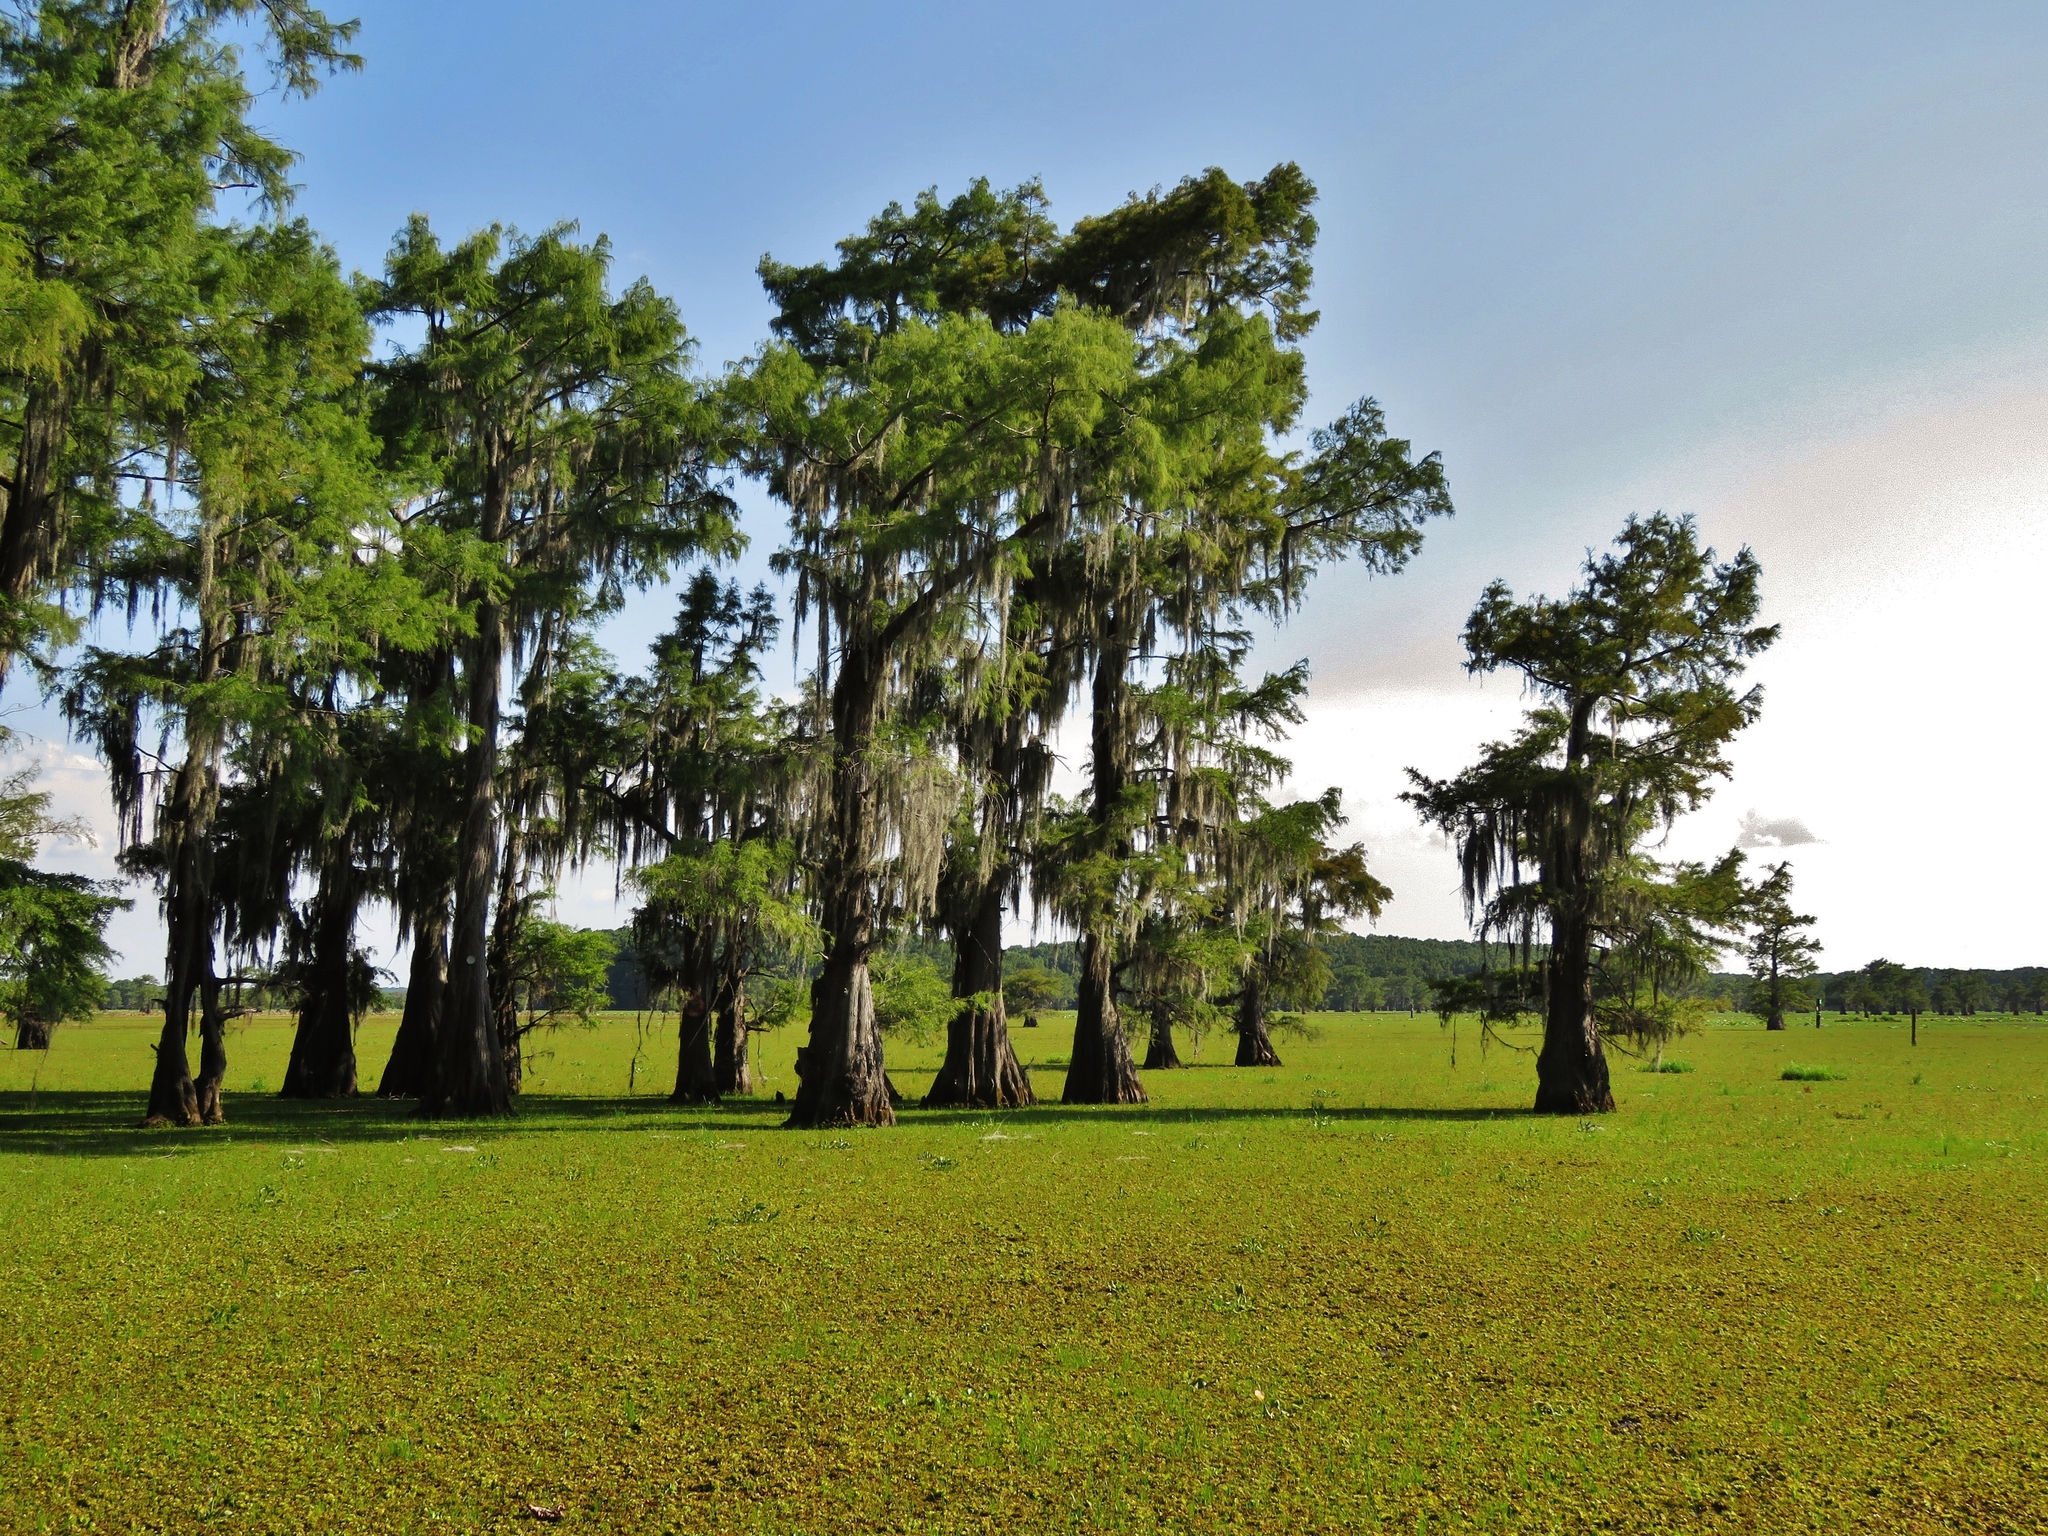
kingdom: Plantae
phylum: Tracheophyta
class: Polypodiopsida
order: Salviniales
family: Salviniaceae
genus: Salvinia
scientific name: Salvinia molesta
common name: Kariba weed
